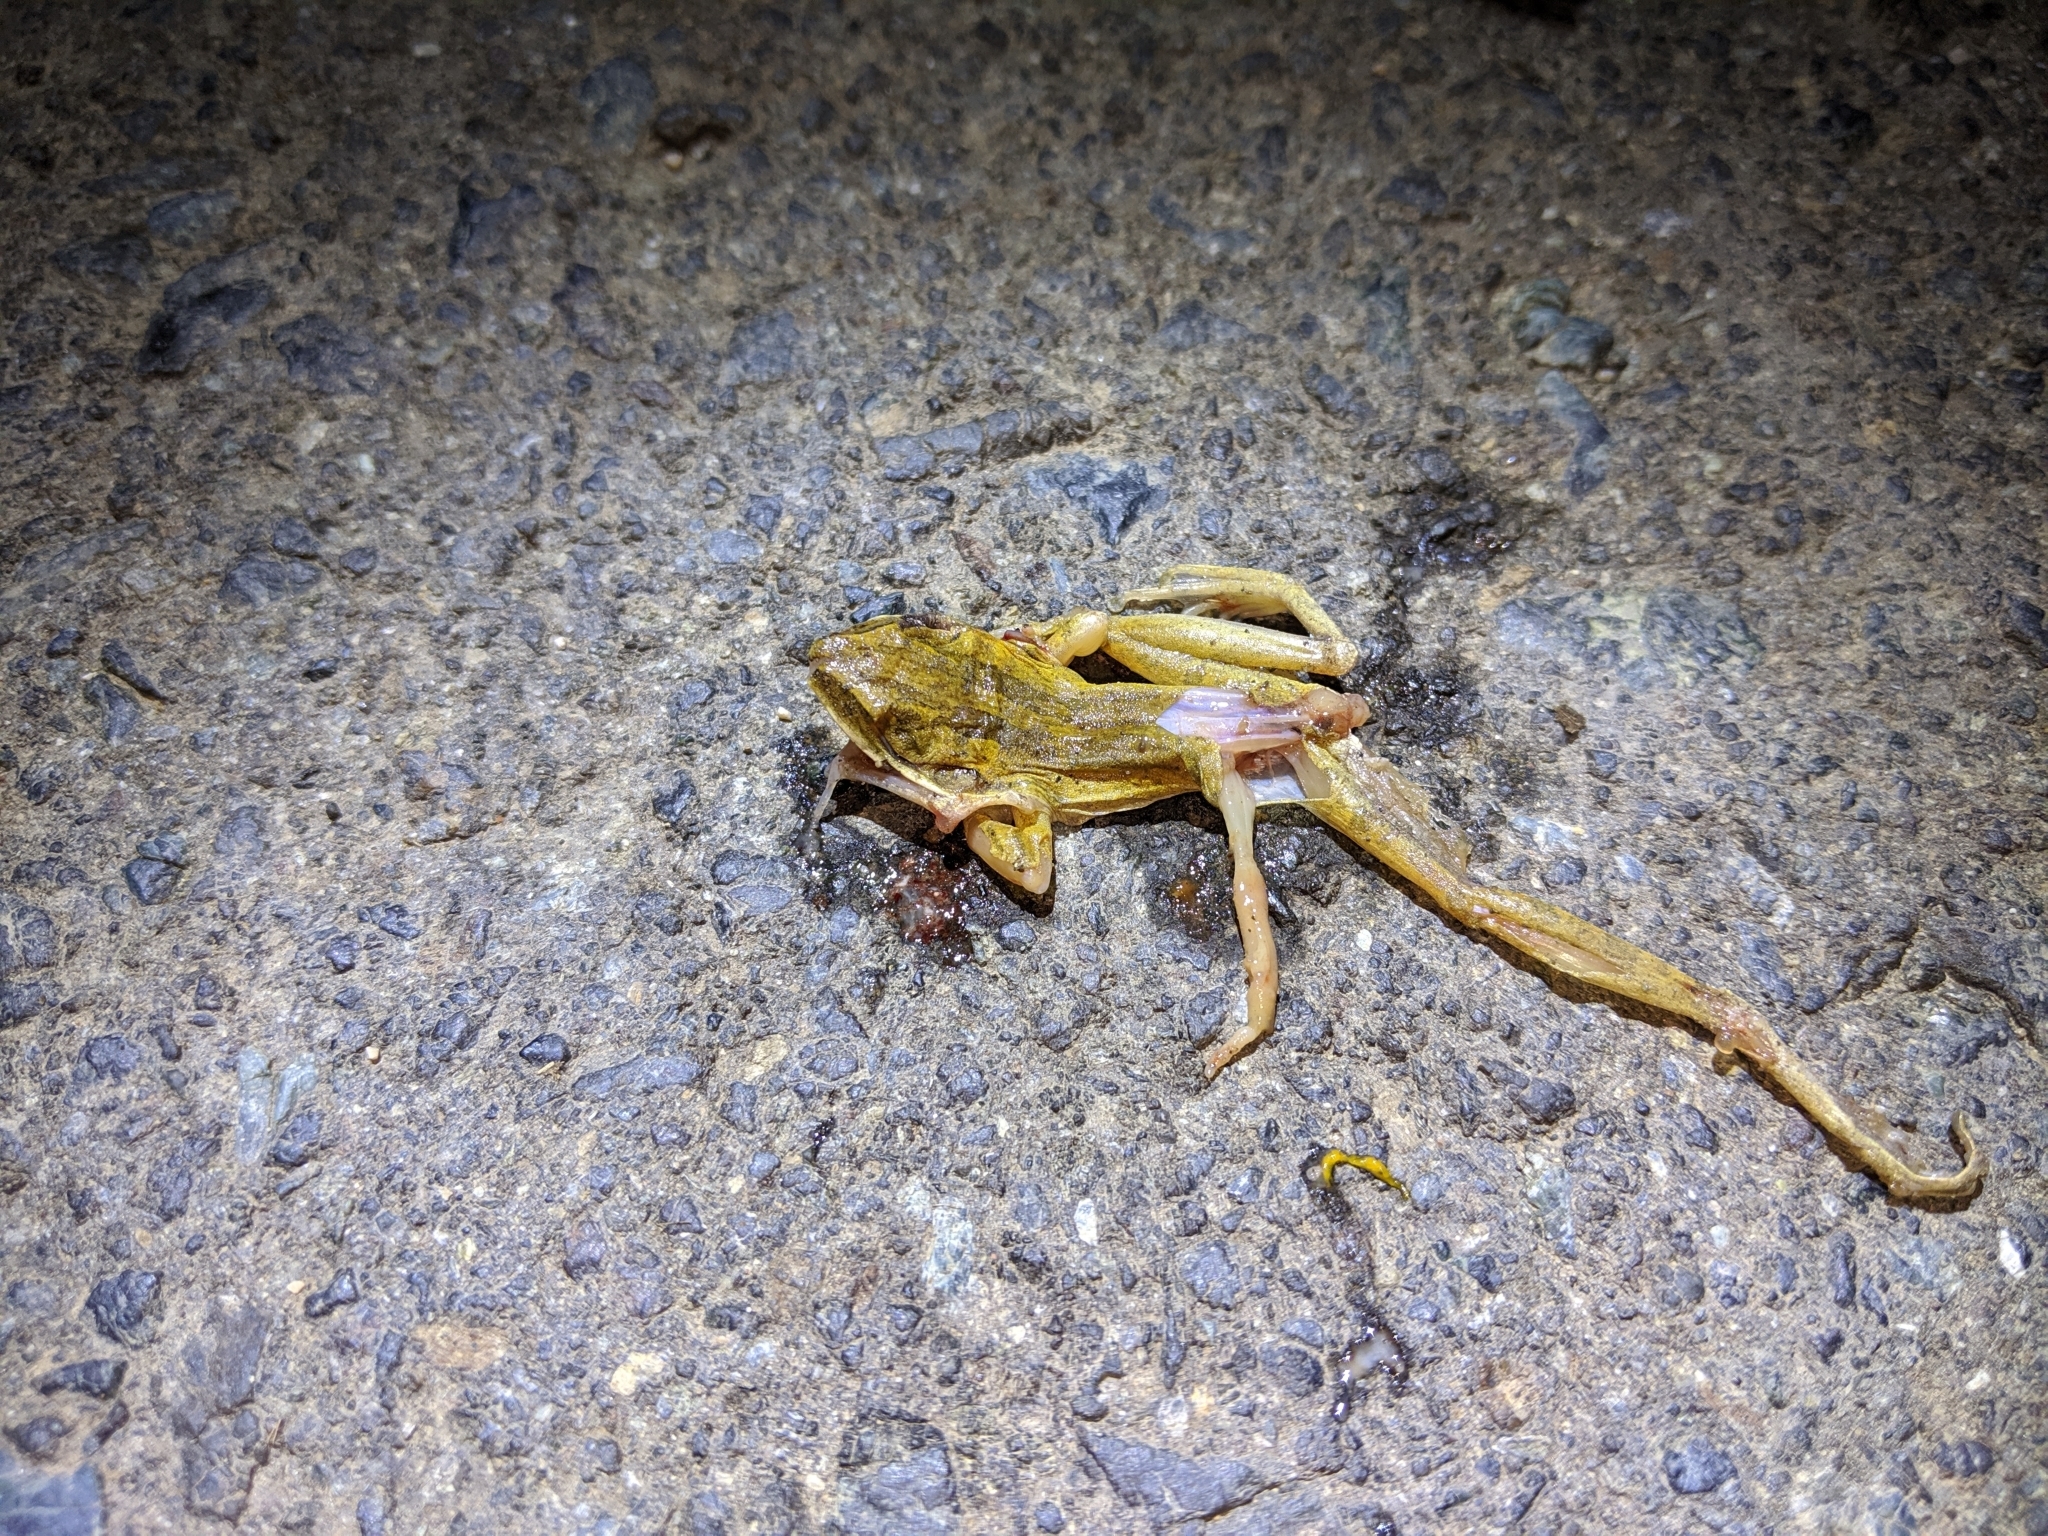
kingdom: Animalia
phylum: Chordata
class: Amphibia
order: Anura
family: Rhacophoridae
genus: Polypedates
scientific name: Polypedates leucomystax
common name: Common tree frog/four-lined tree frog
